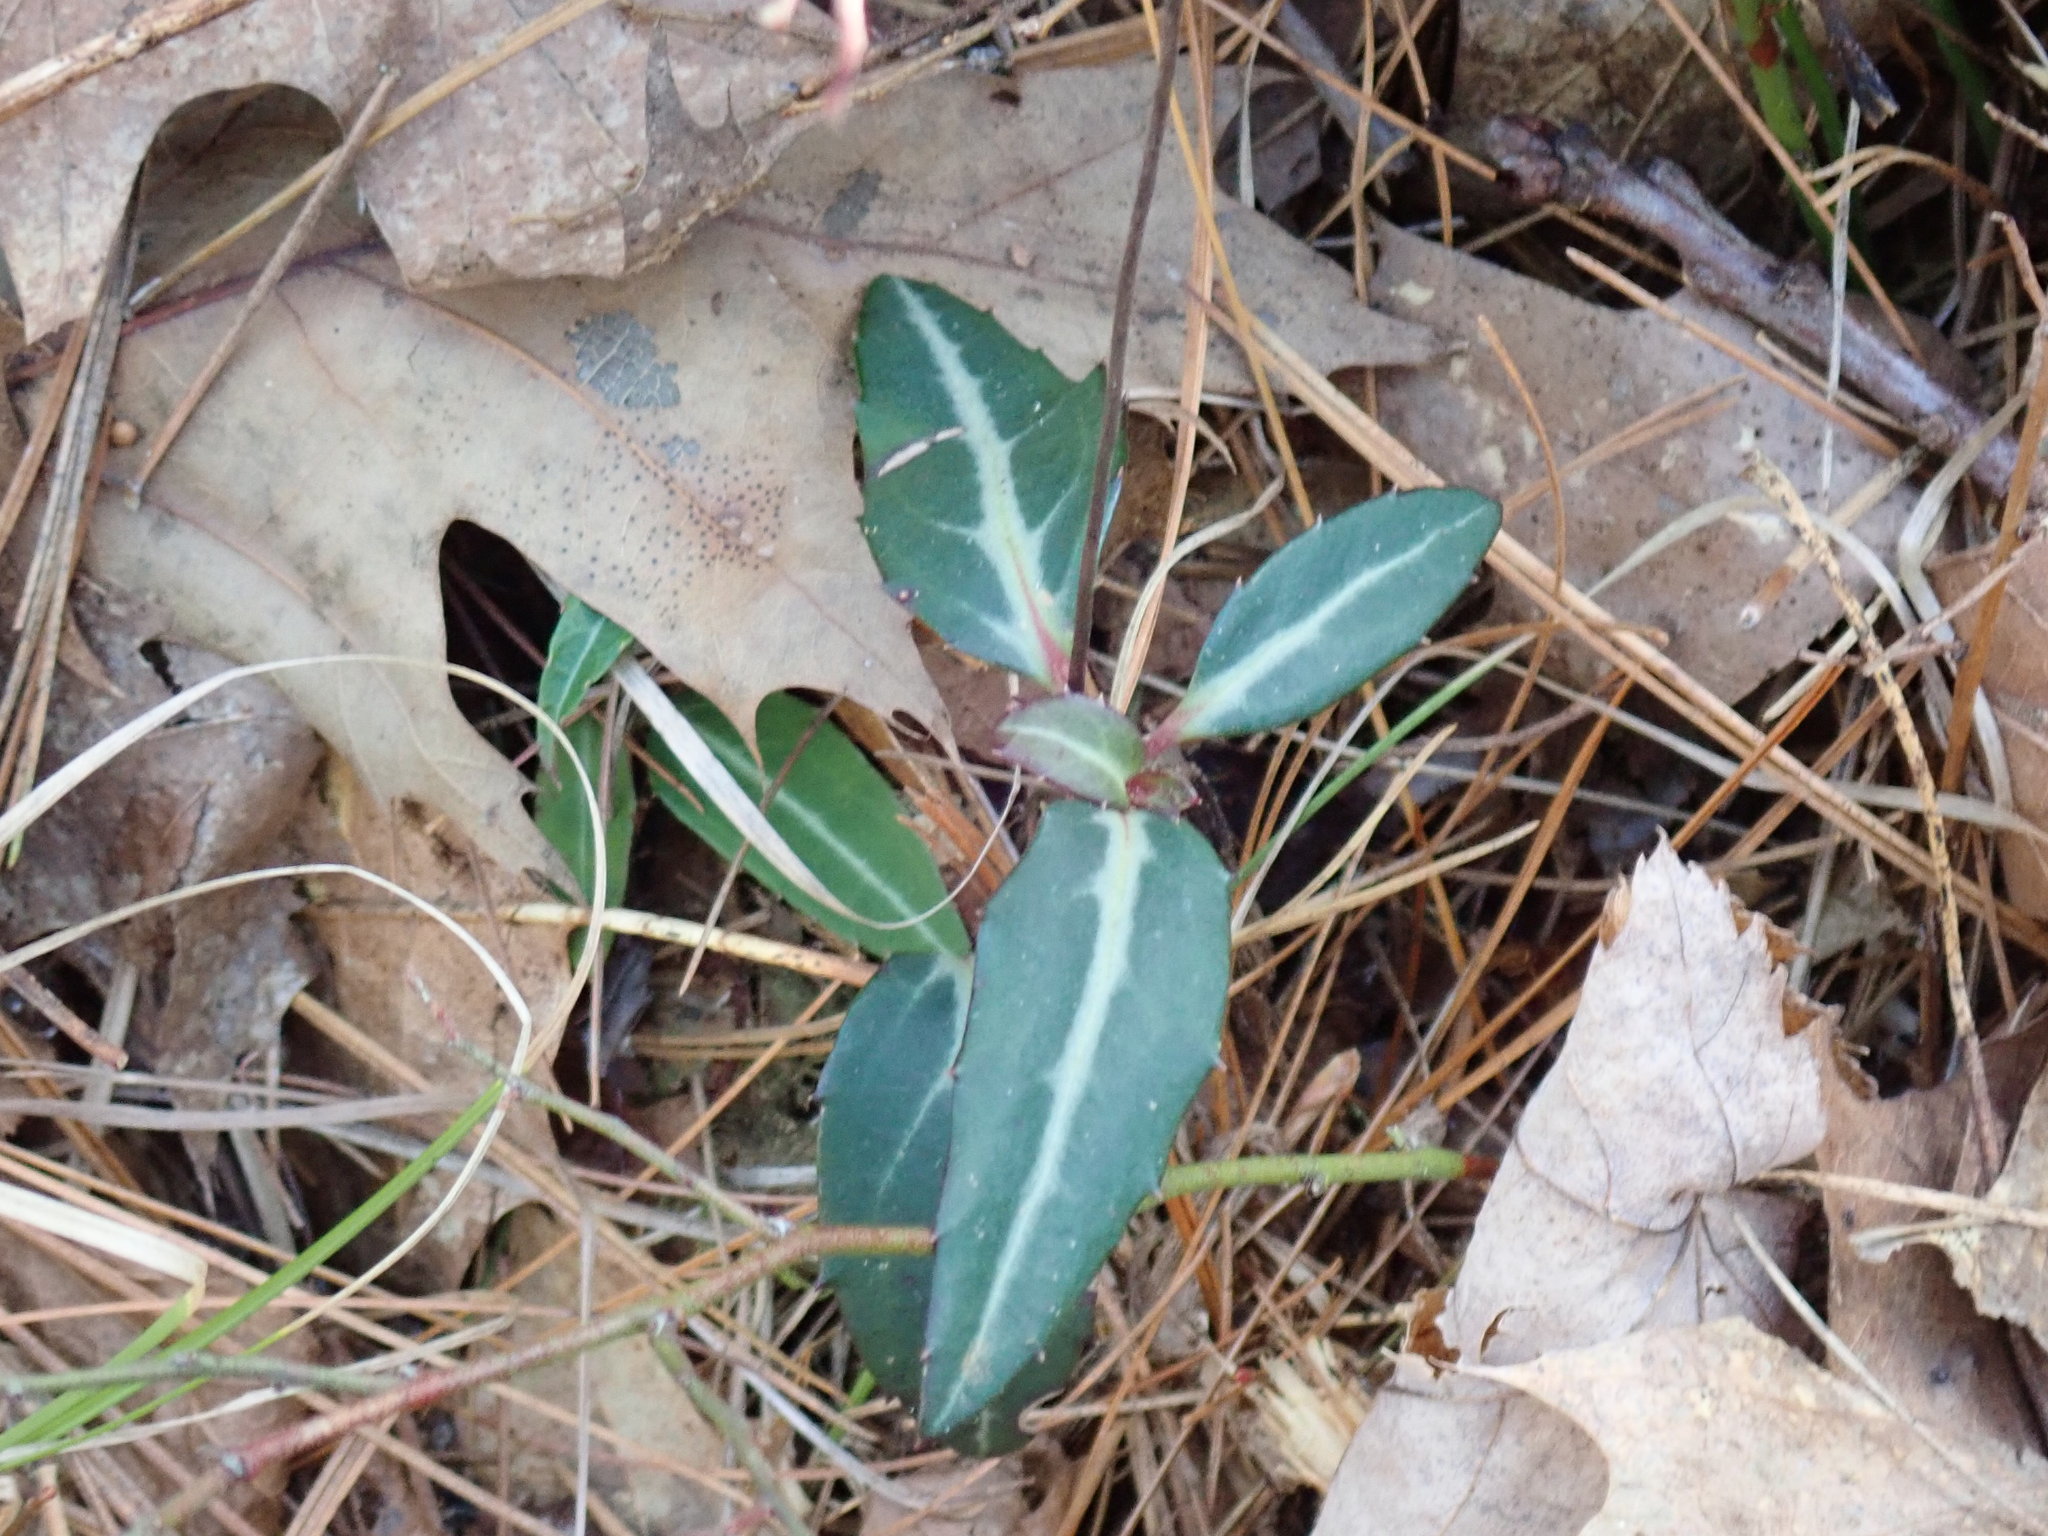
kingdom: Plantae
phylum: Tracheophyta
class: Magnoliopsida
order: Ericales
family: Ericaceae
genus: Chimaphila
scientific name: Chimaphila maculata
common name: Spotted pipsissewa
